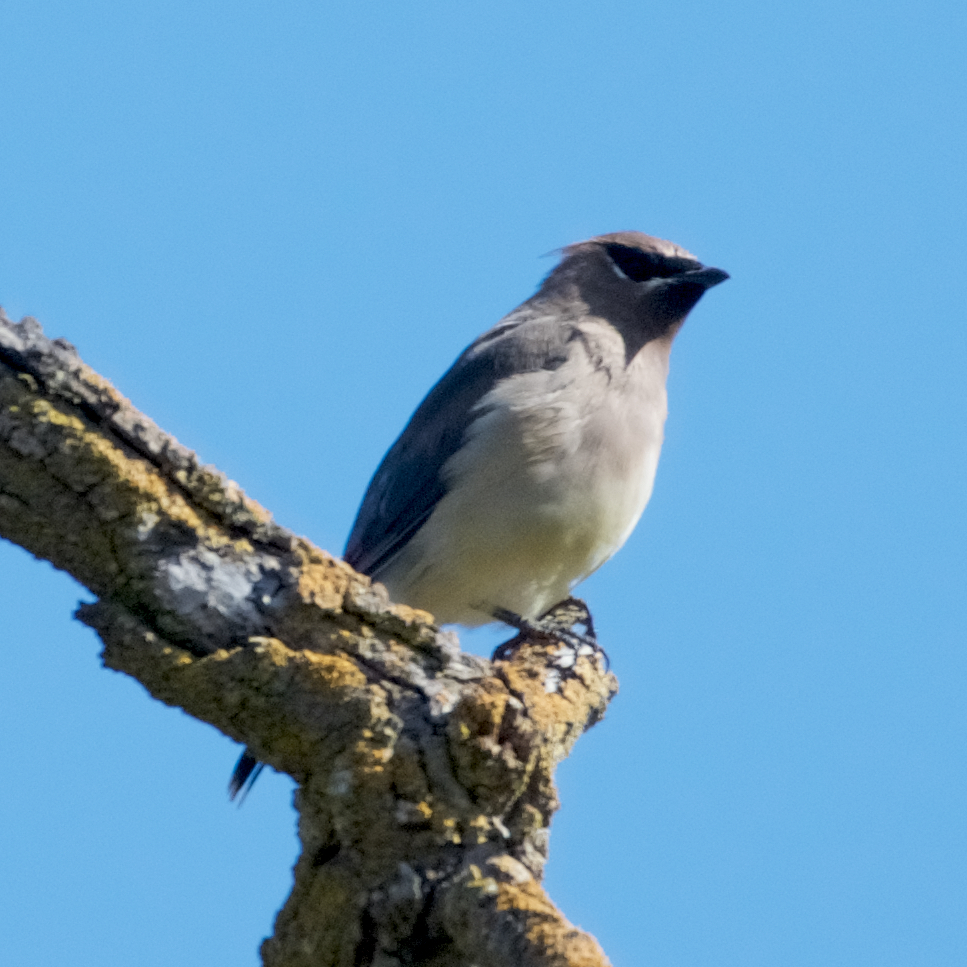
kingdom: Animalia
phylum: Chordata
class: Aves
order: Passeriformes
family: Bombycillidae
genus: Bombycilla
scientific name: Bombycilla cedrorum
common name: Cedar waxwing
